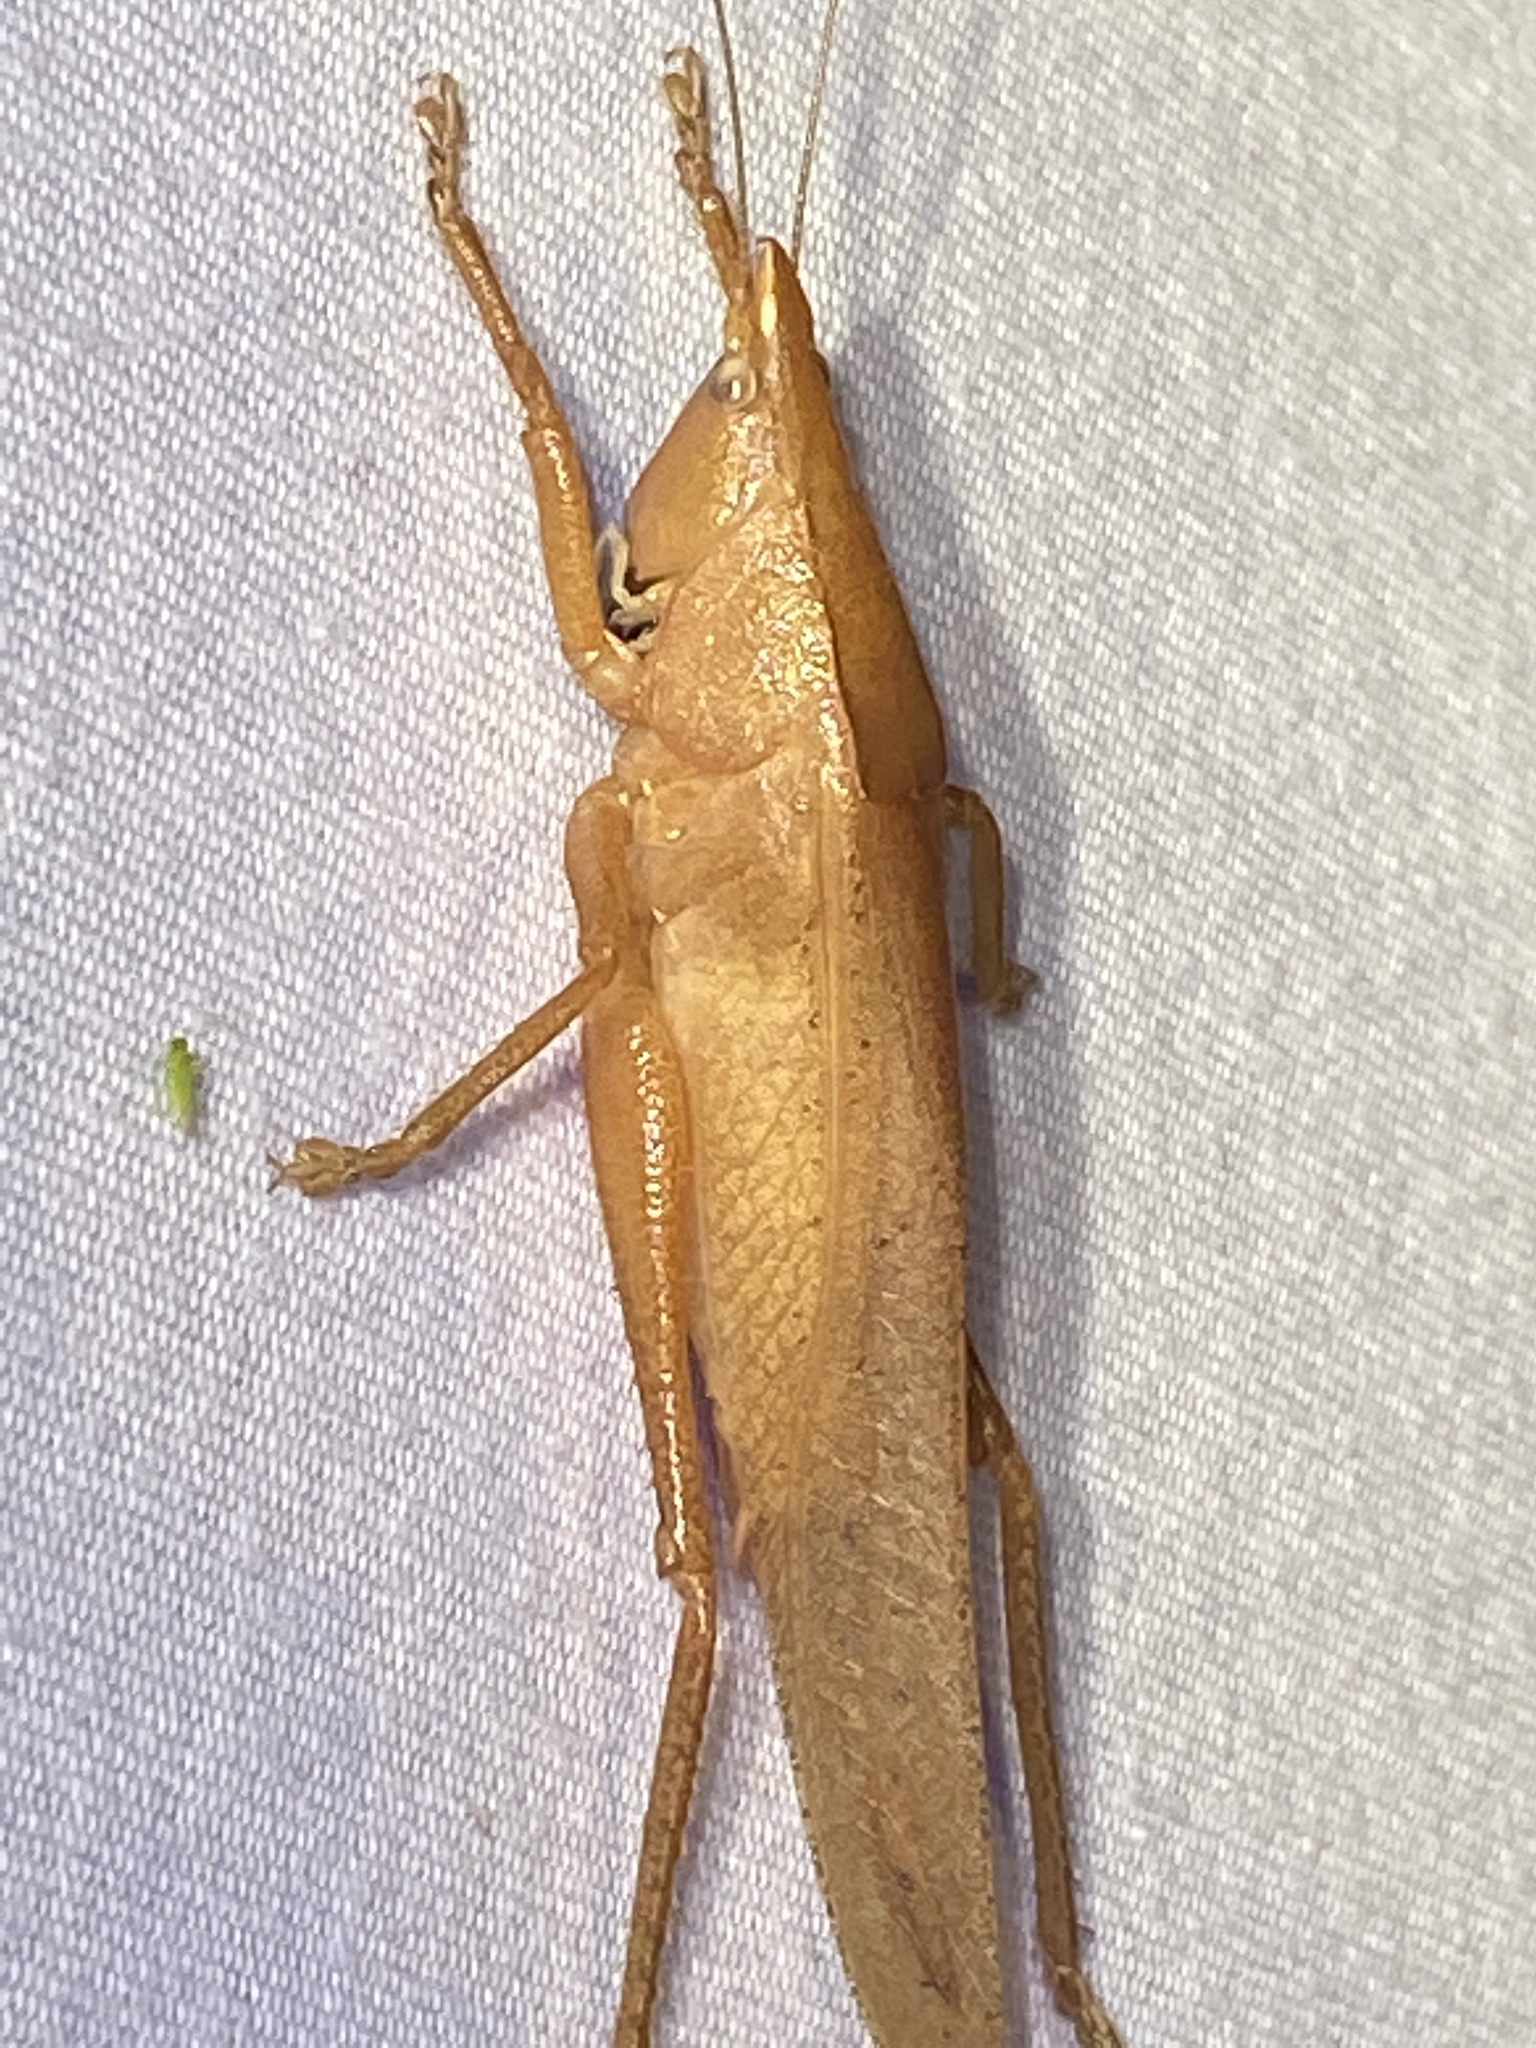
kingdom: Animalia
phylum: Arthropoda
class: Insecta
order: Orthoptera
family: Tettigoniidae
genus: Pyrgocorypha
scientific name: Pyrgocorypha uncinata
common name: Hook-faced conehead
